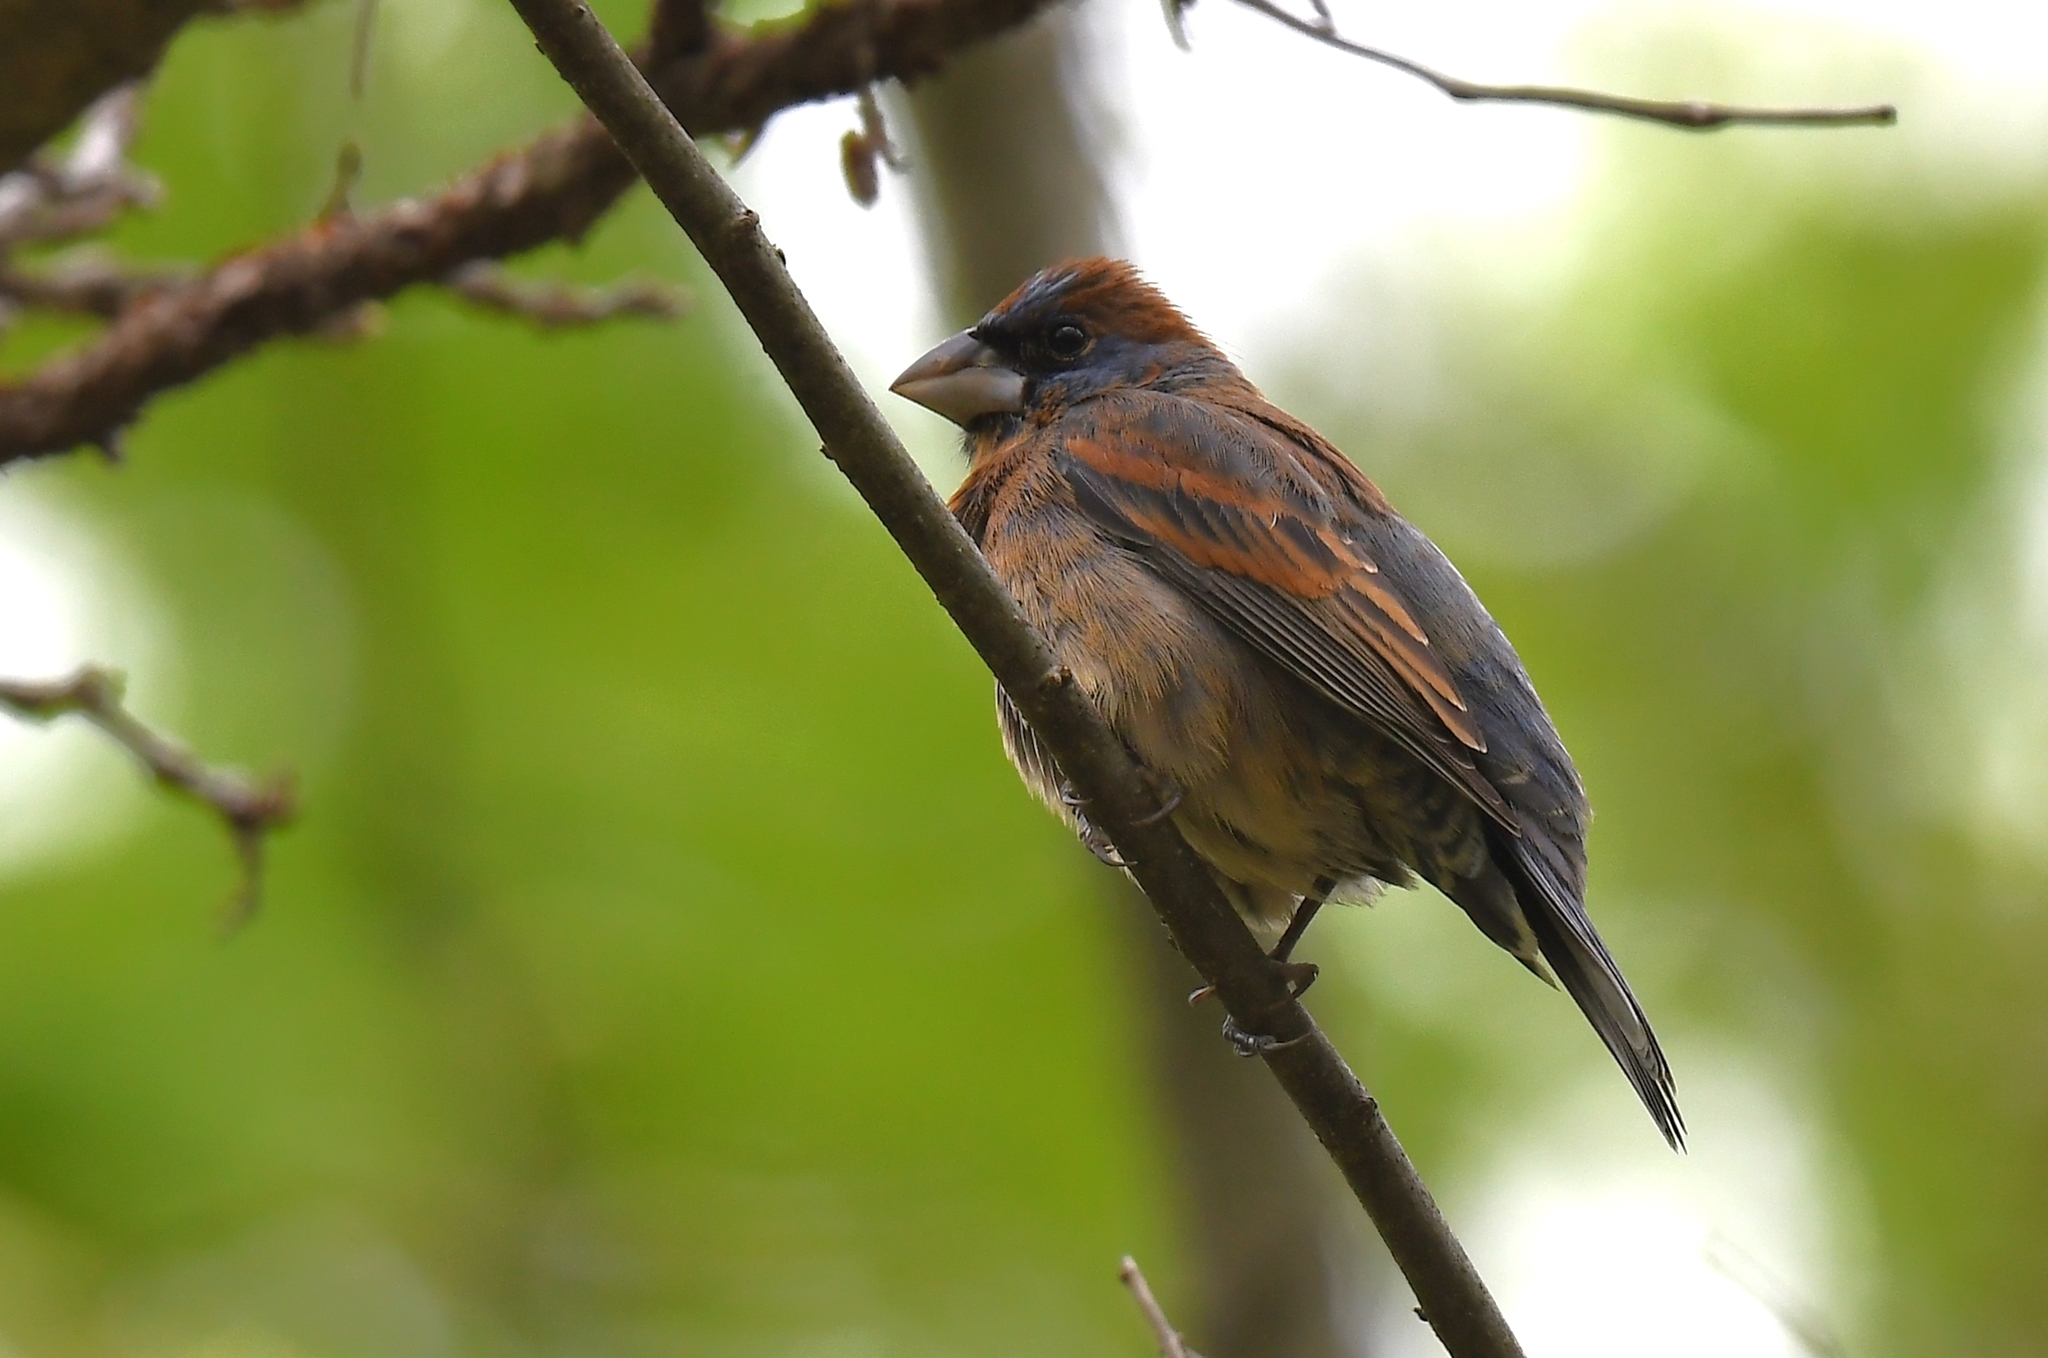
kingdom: Animalia
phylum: Chordata
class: Aves
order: Passeriformes
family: Cardinalidae
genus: Passerina
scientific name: Passerina caerulea
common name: Blue grosbeak
